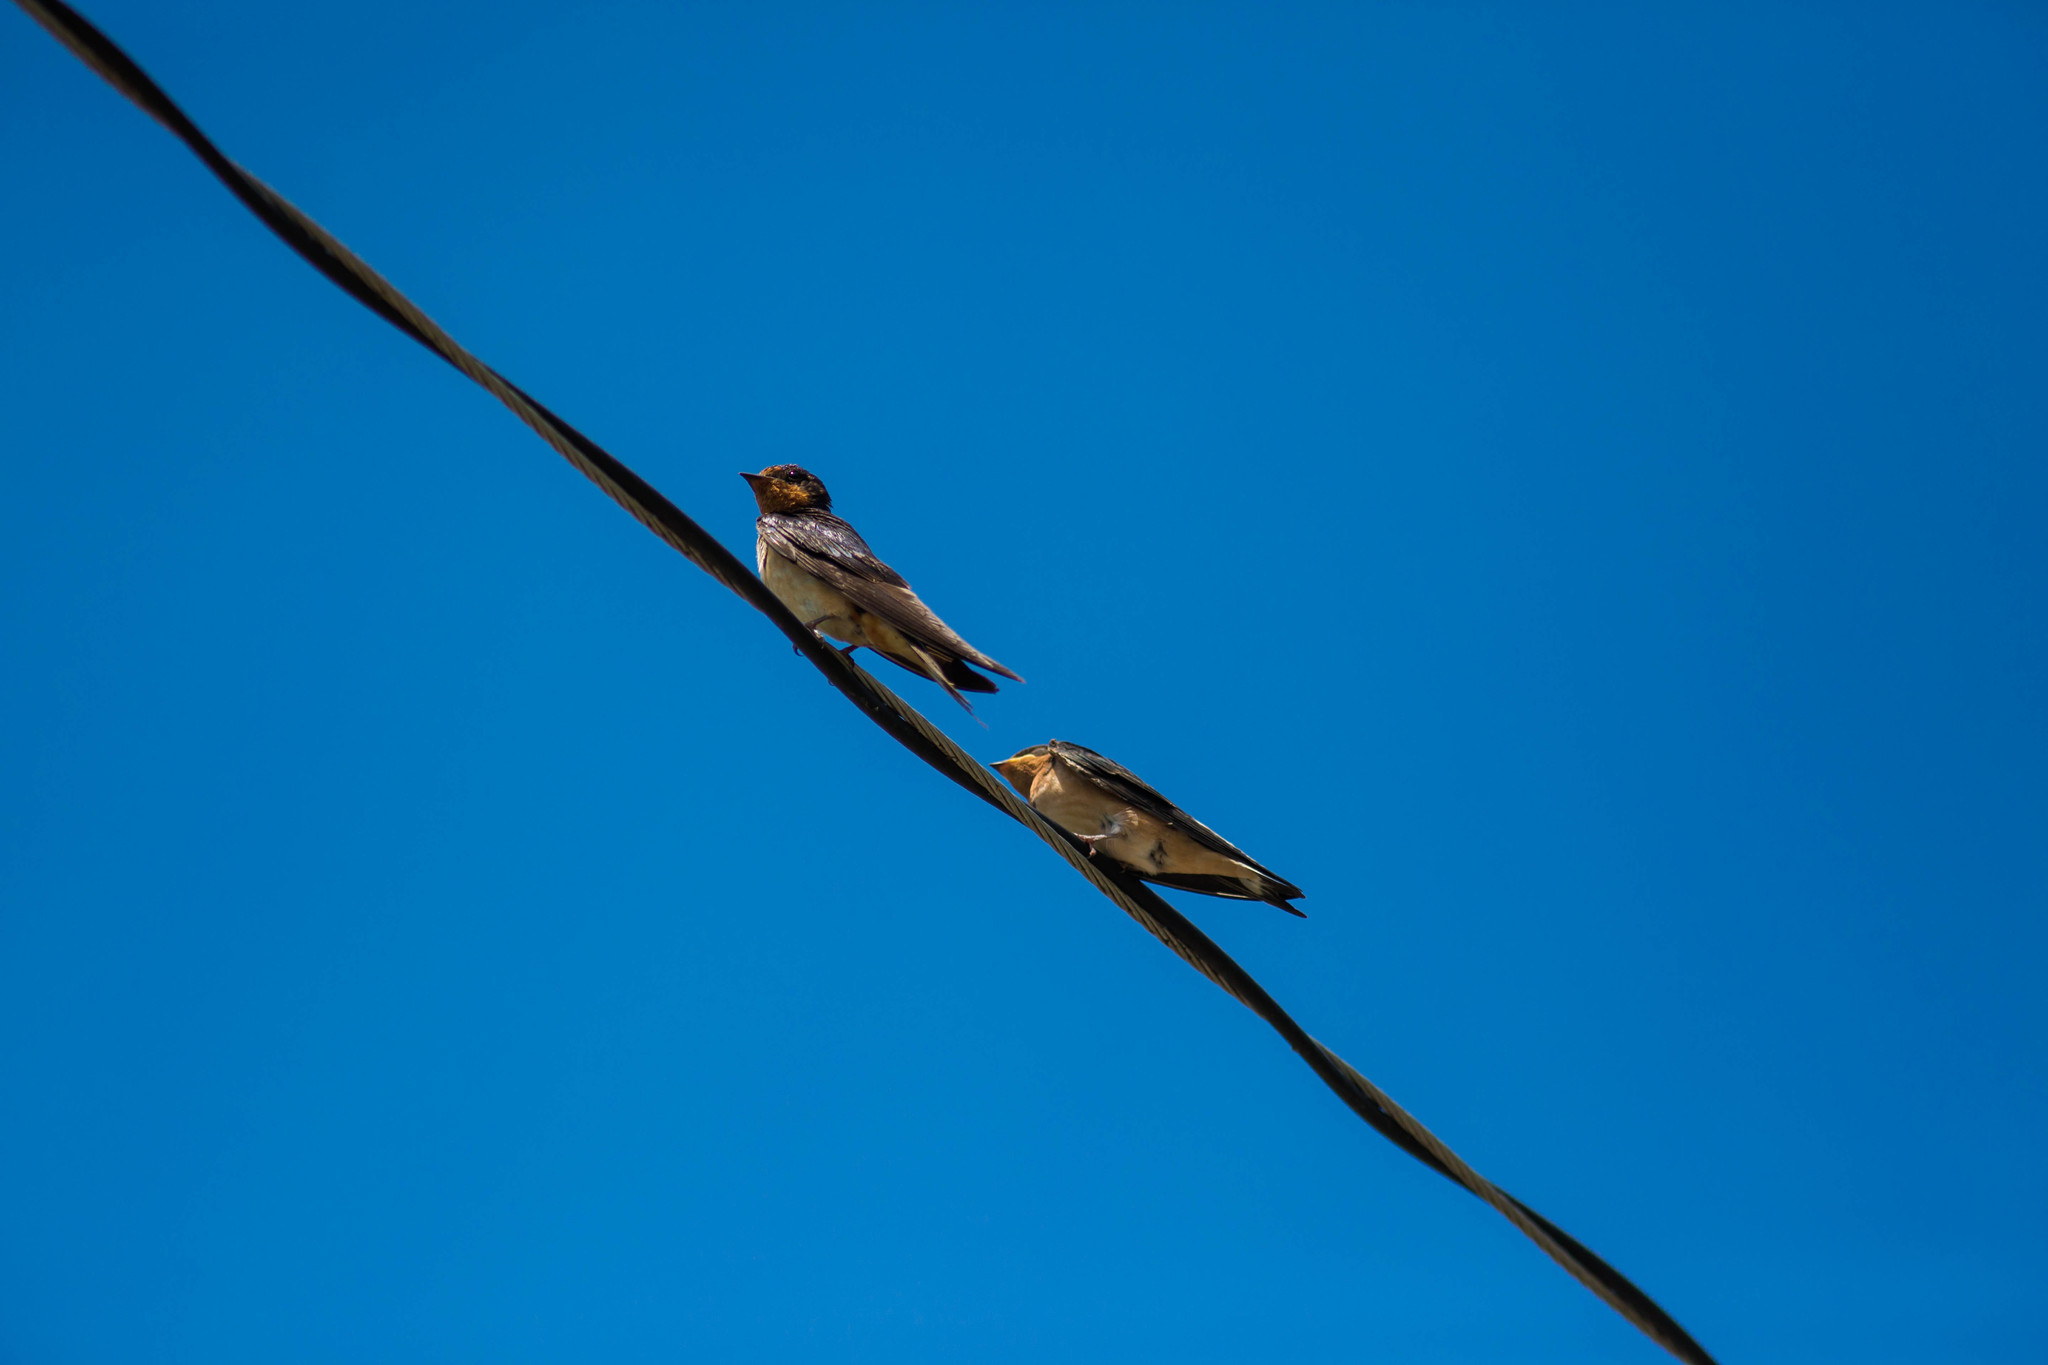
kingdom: Animalia
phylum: Chordata
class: Aves
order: Passeriformes
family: Hirundinidae
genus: Hirundo
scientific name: Hirundo rustica
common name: Barn swallow
